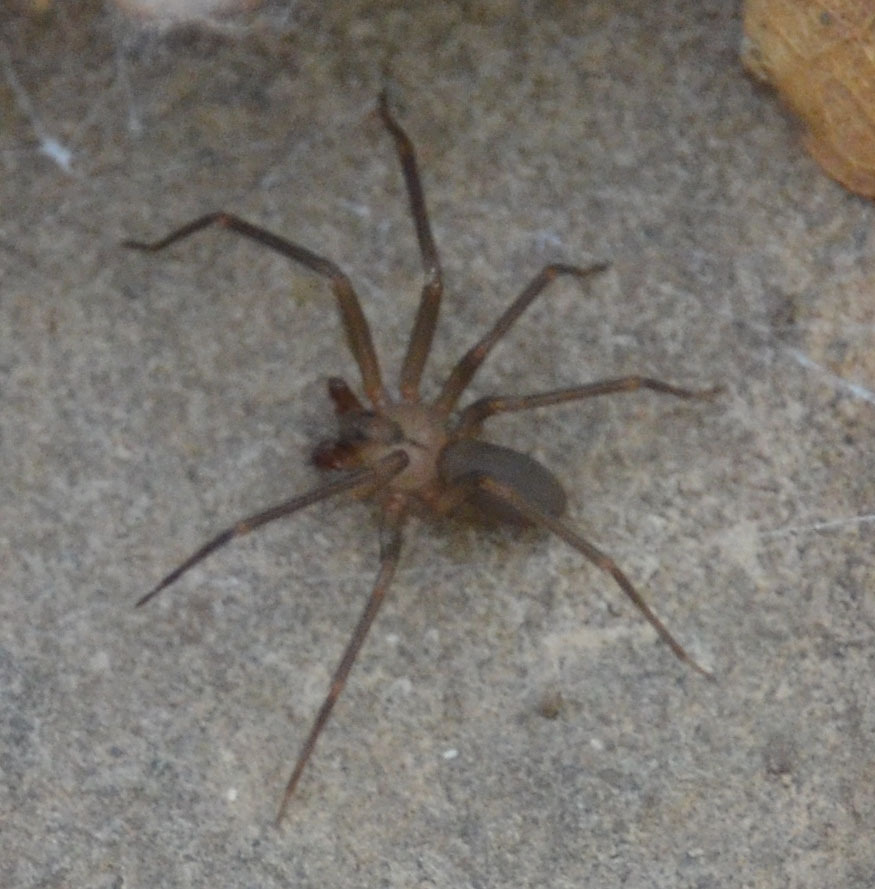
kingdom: Animalia
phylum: Arthropoda
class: Arachnida
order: Araneae
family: Sicariidae
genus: Loxosceles
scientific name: Loxosceles reclusa
